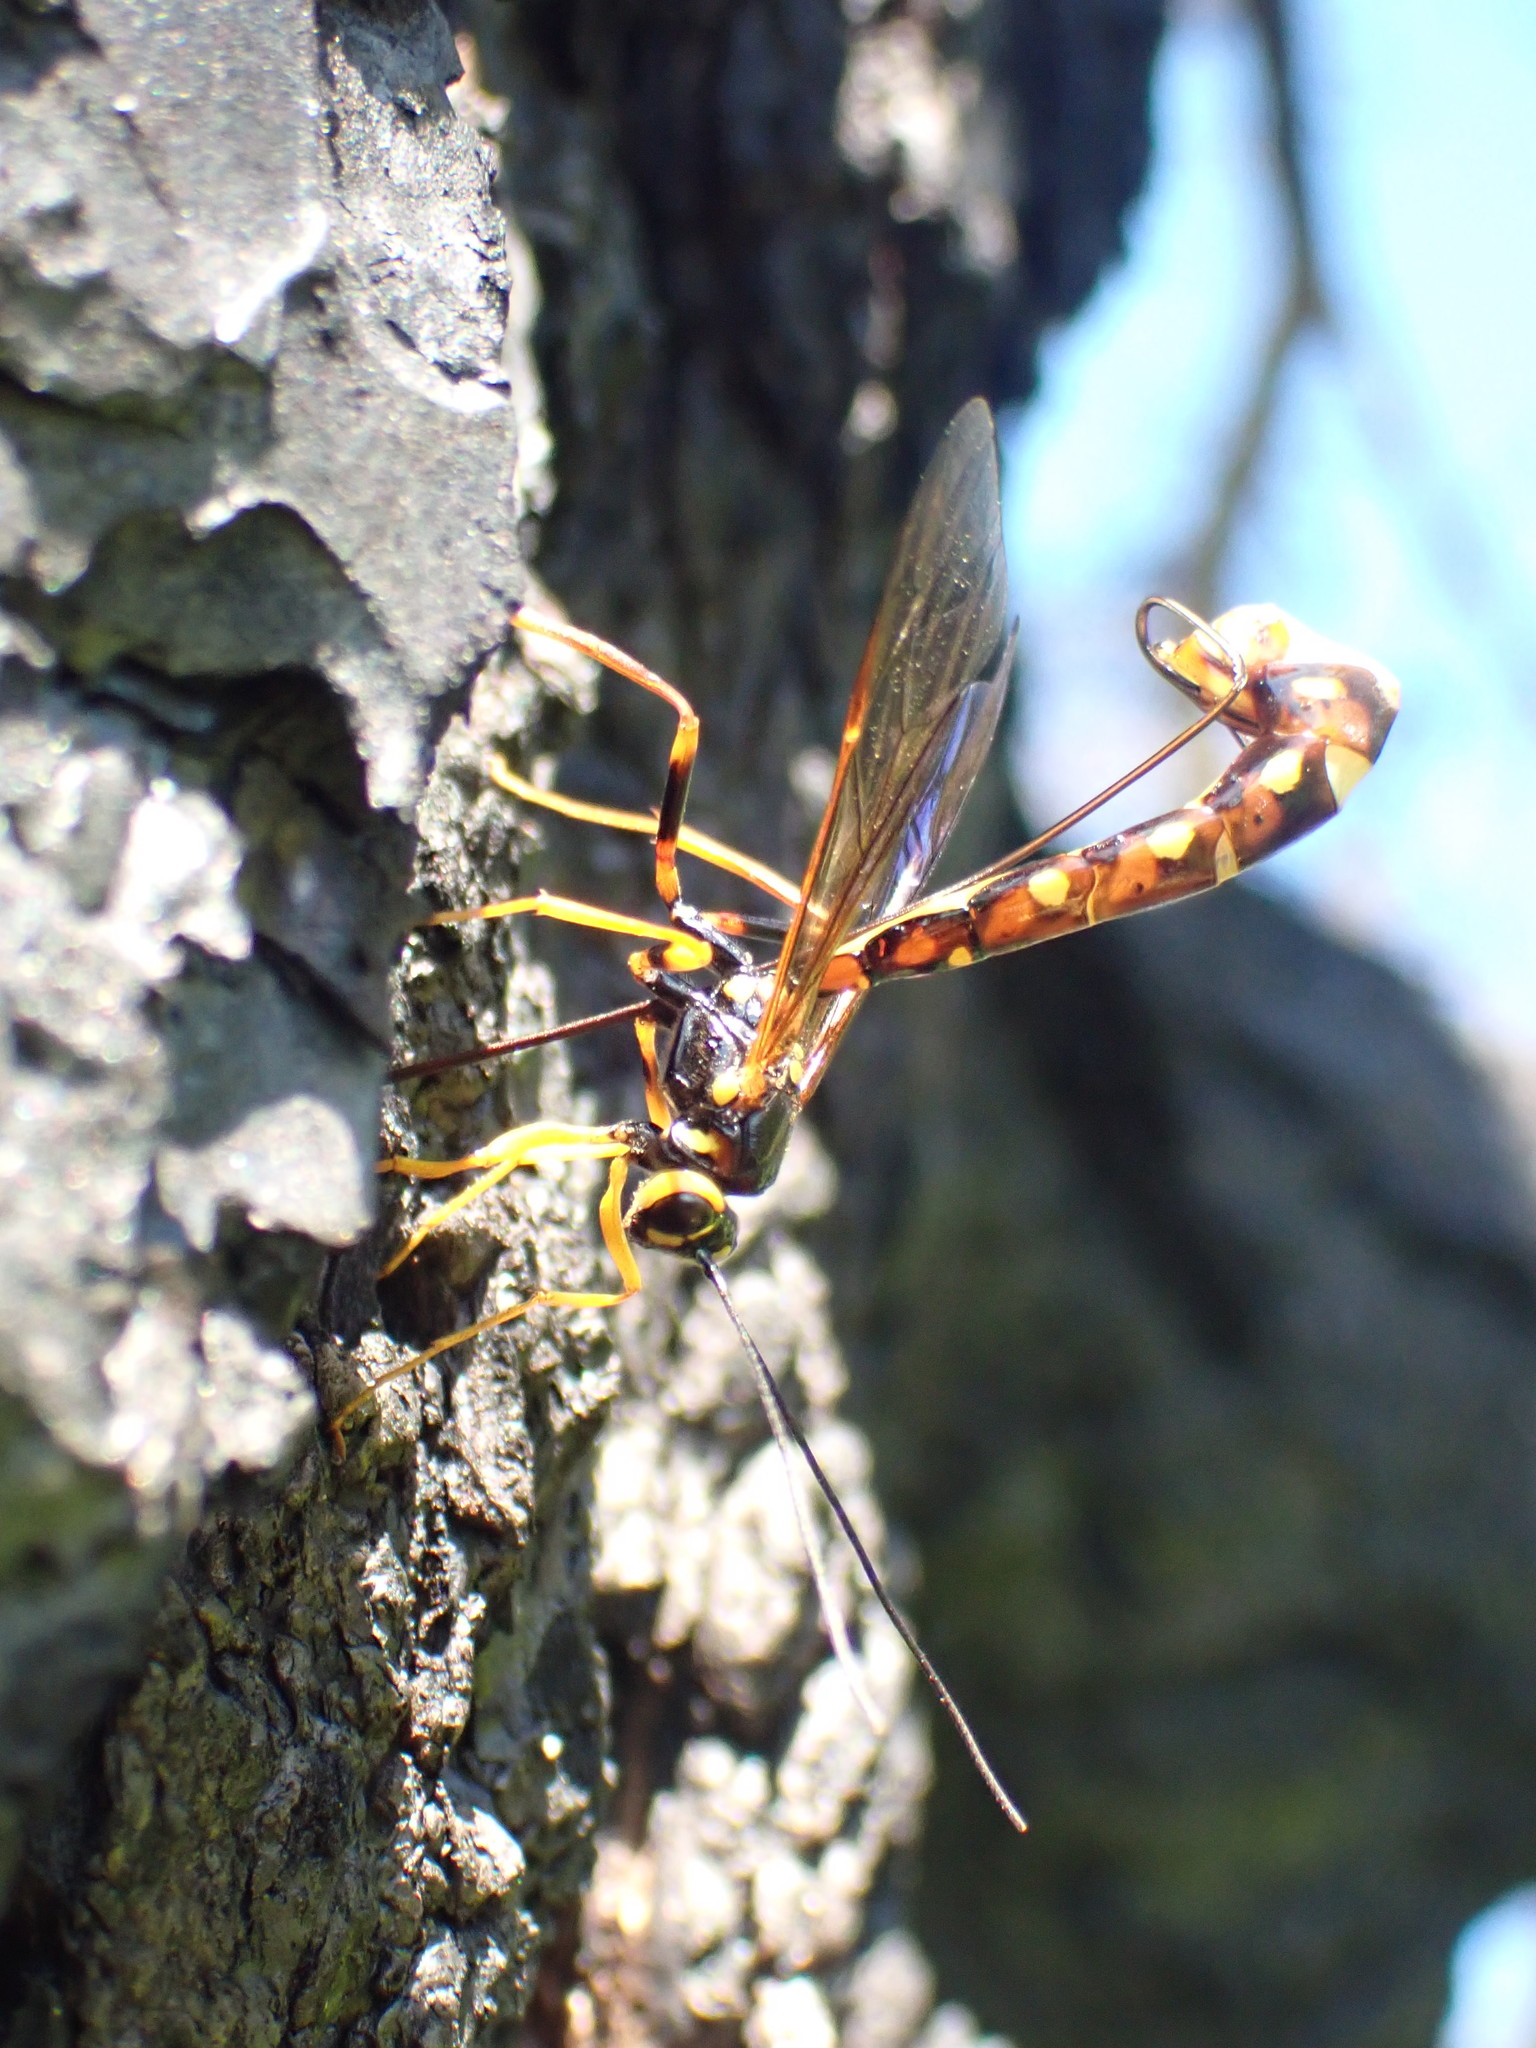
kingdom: Animalia
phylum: Arthropoda
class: Insecta
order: Hymenoptera
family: Ichneumonidae
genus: Megarhyssa
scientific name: Megarhyssa nortoni
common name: Norton's giant ichneumonid wasp
